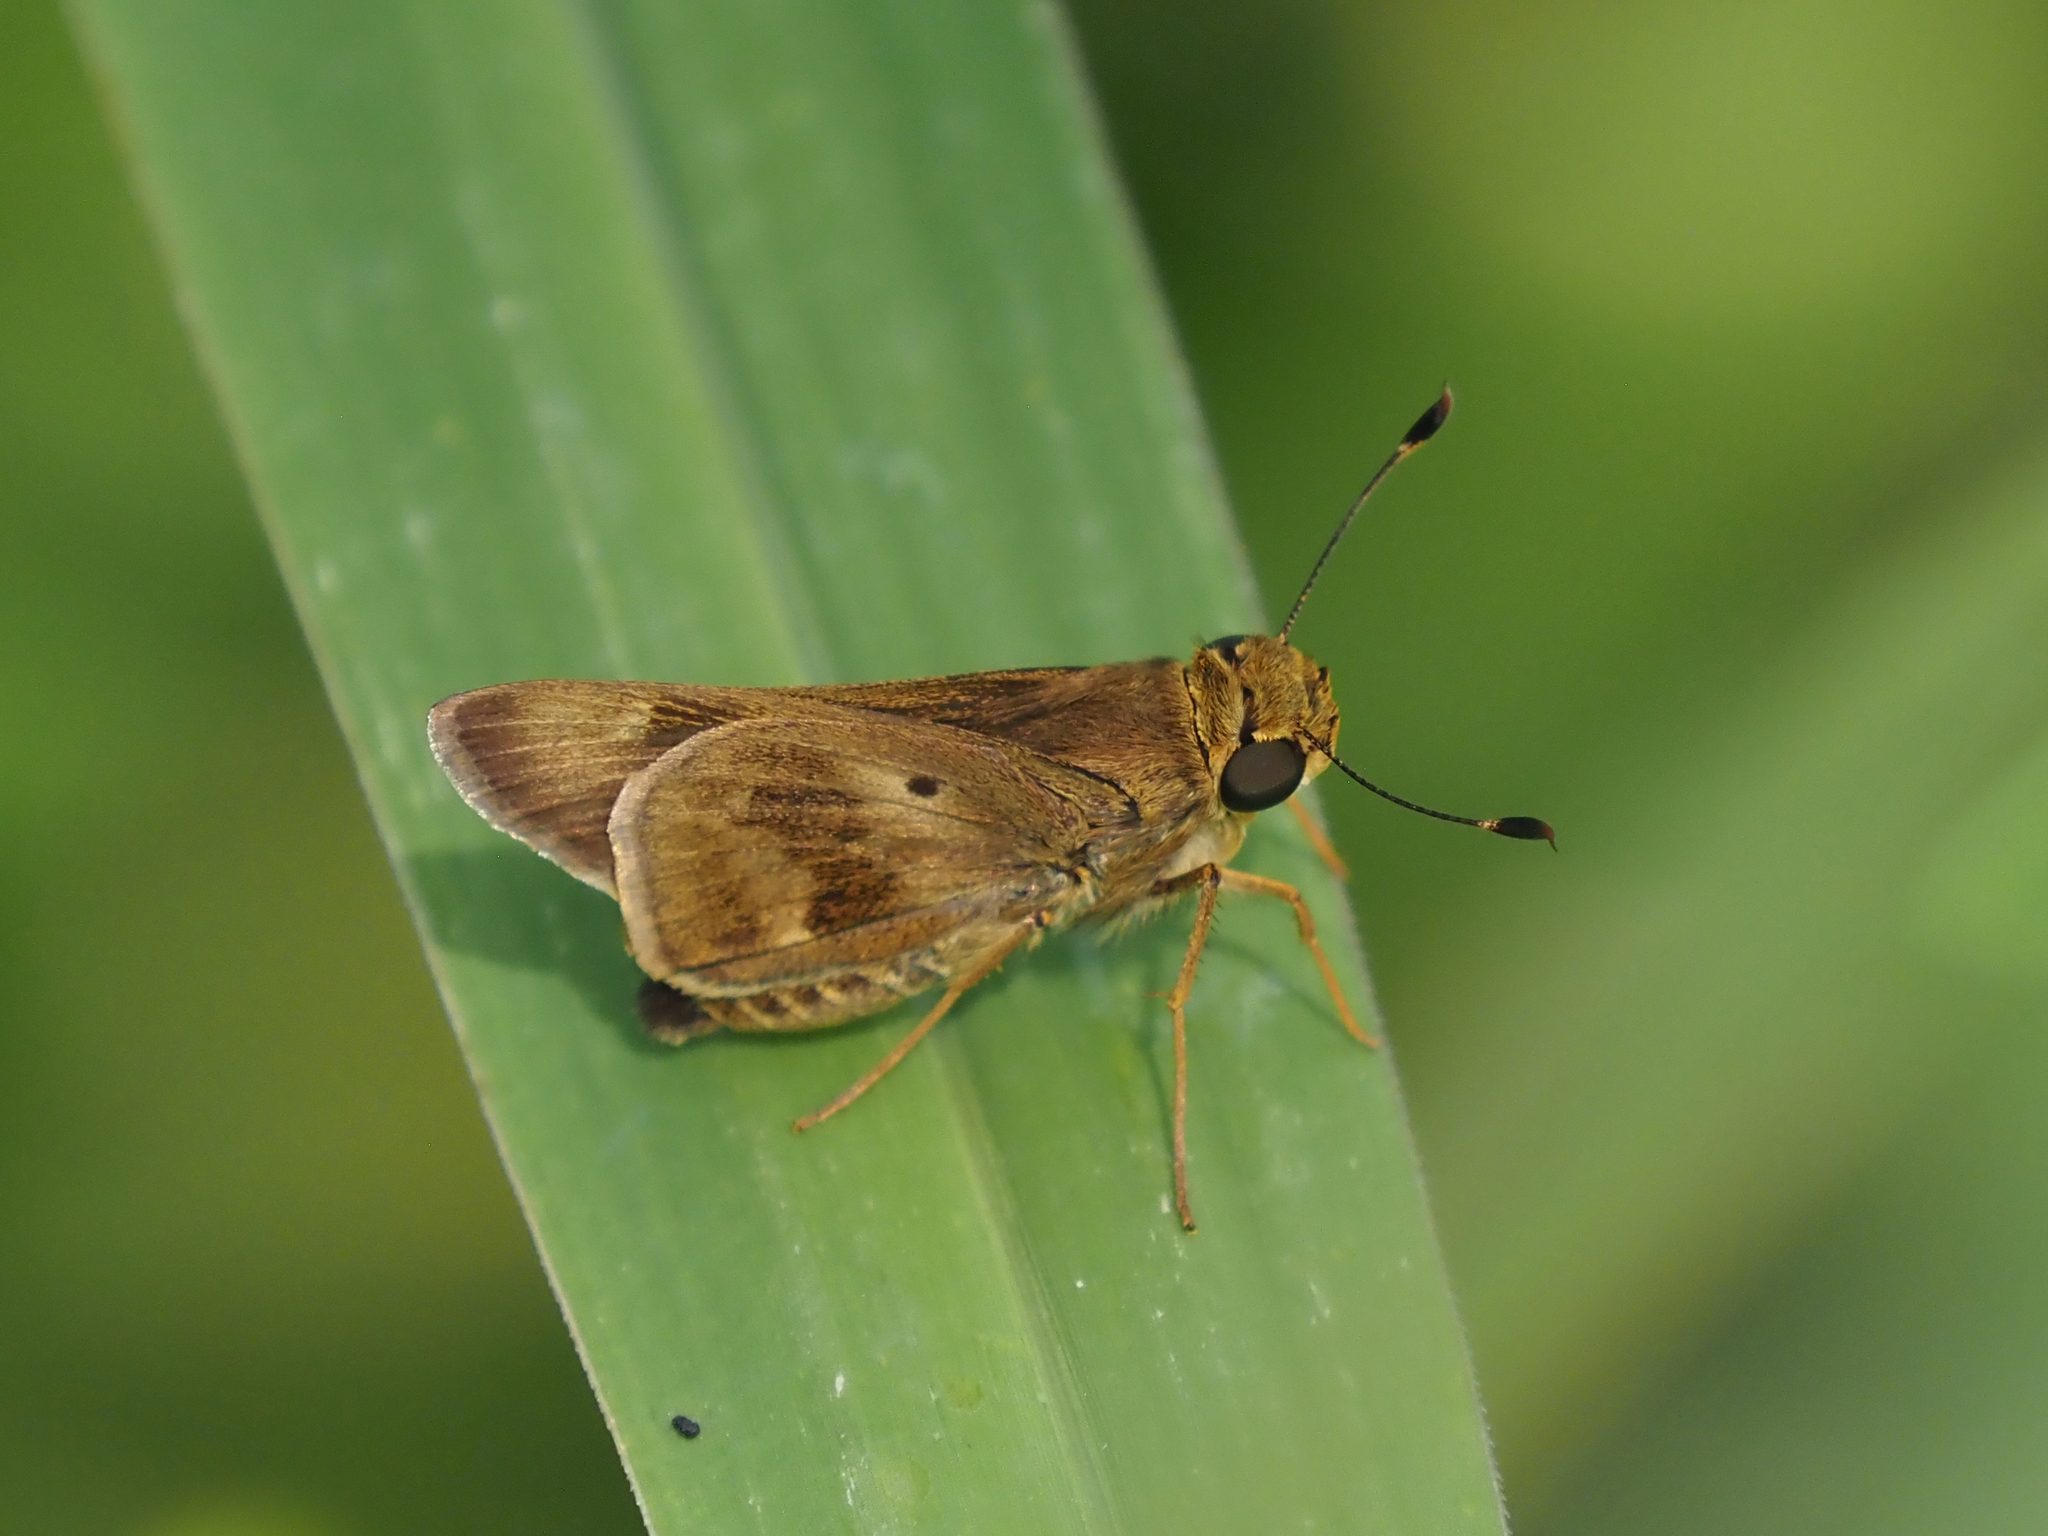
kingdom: Animalia
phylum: Arthropoda
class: Insecta
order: Lepidoptera
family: Hesperiidae
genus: Nyctelius
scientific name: Nyctelius nyctelius
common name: Violet-banded skipper
